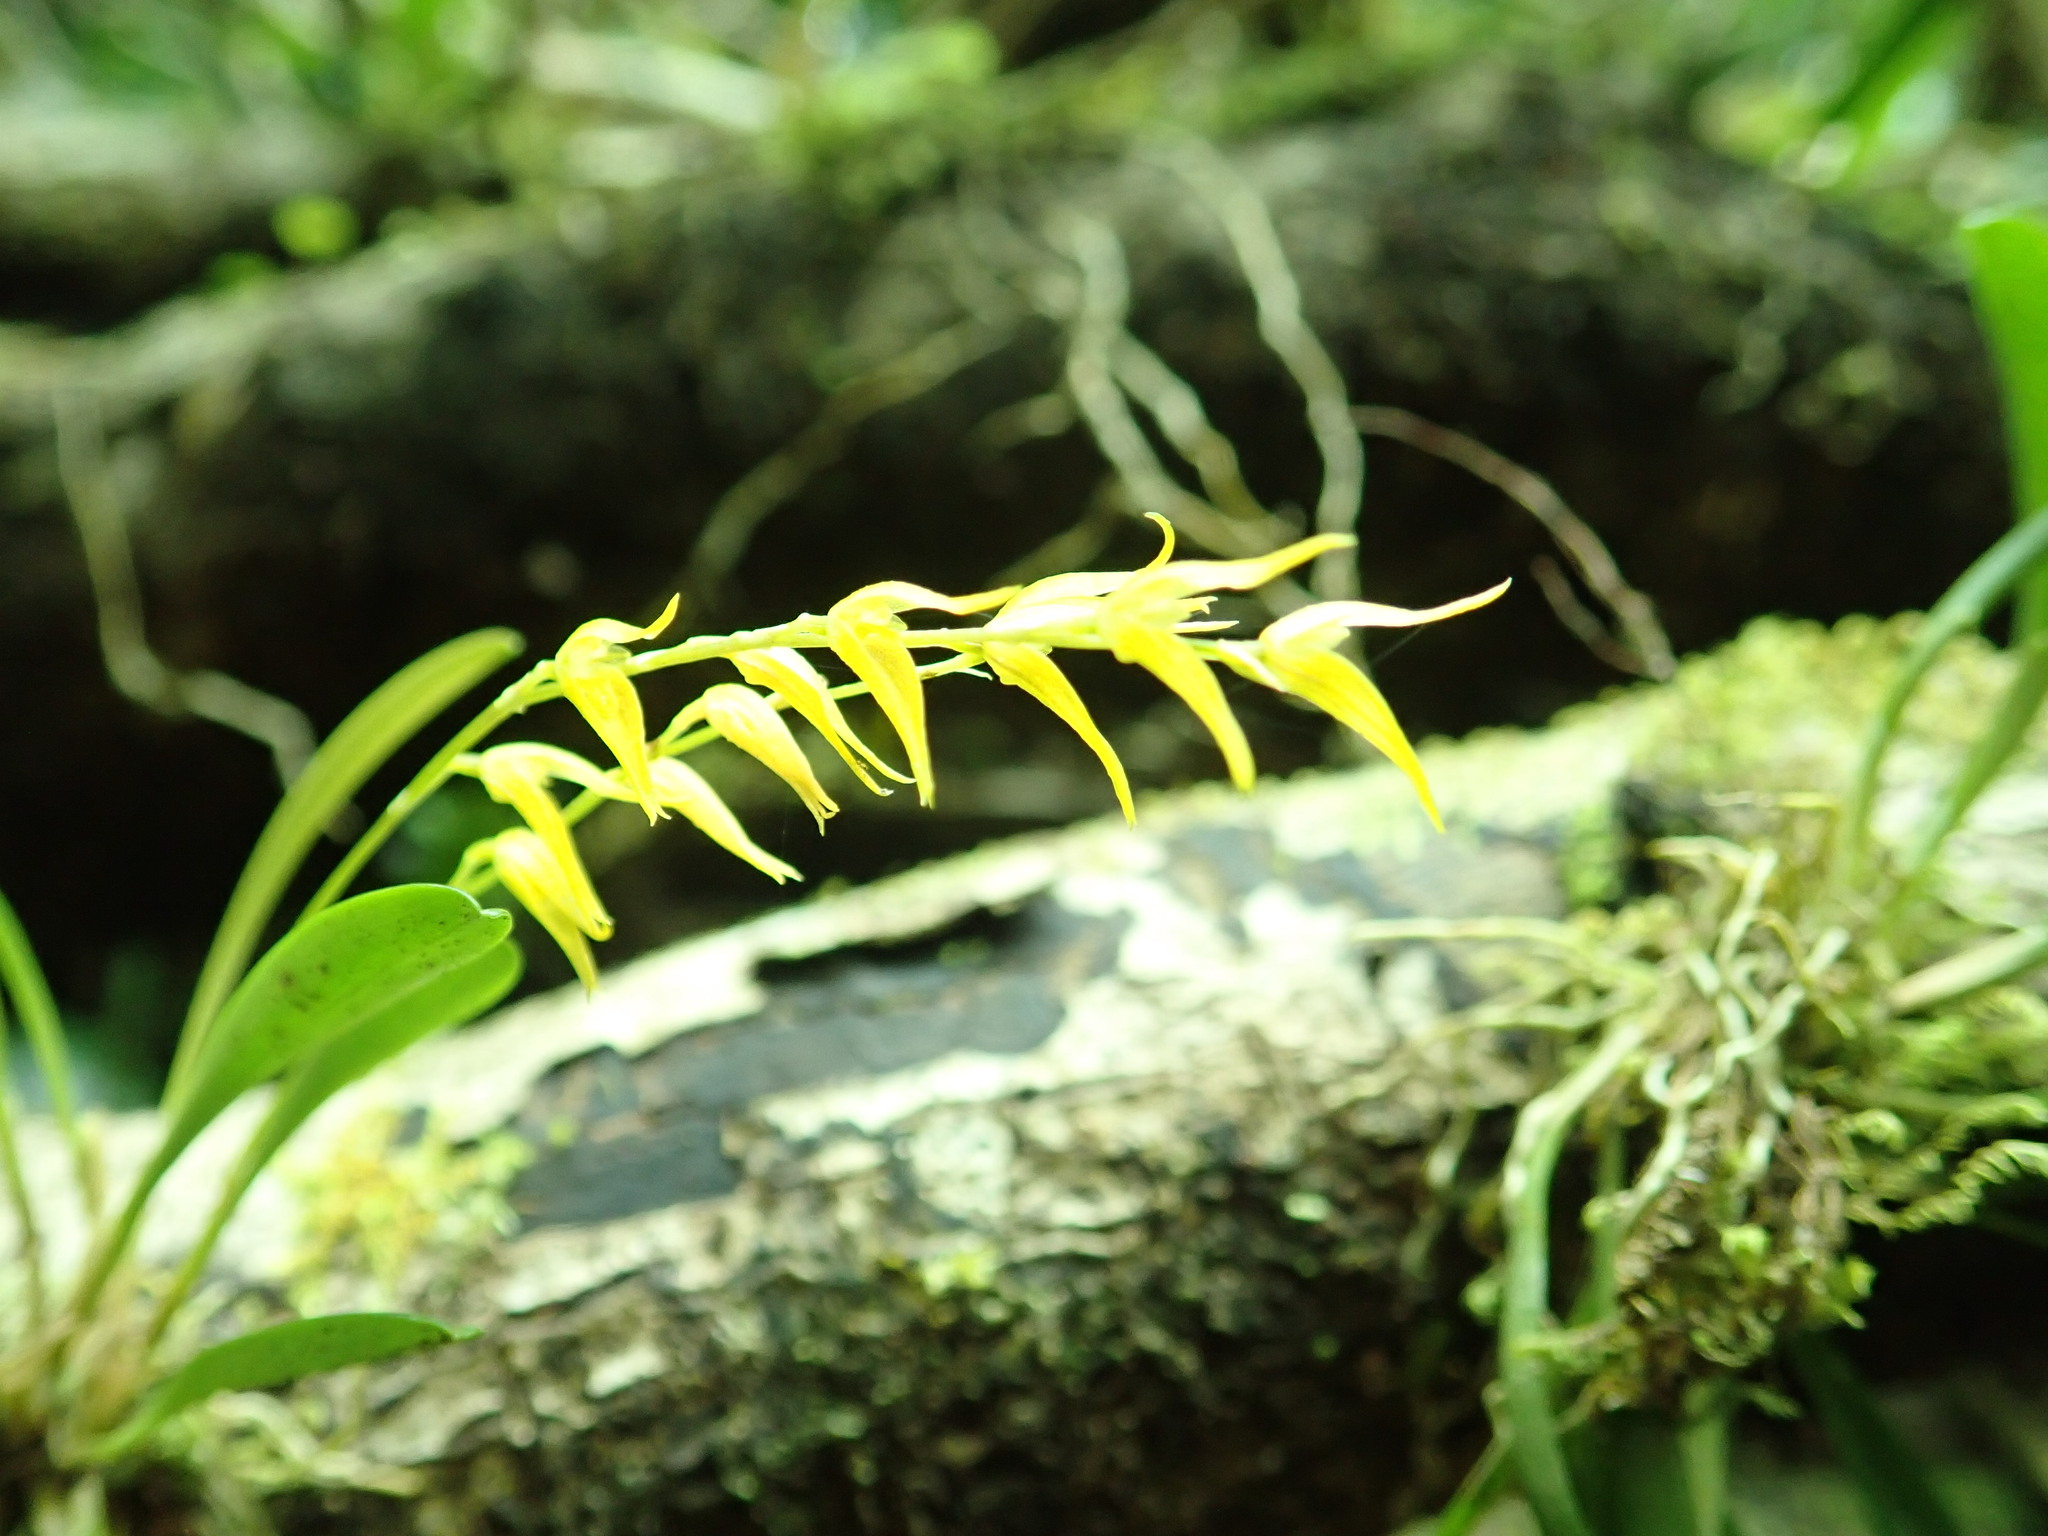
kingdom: Plantae
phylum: Tracheophyta
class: Liliopsida
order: Asparagales
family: Orchidaceae
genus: Specklinia
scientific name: Specklinia costaricensis
